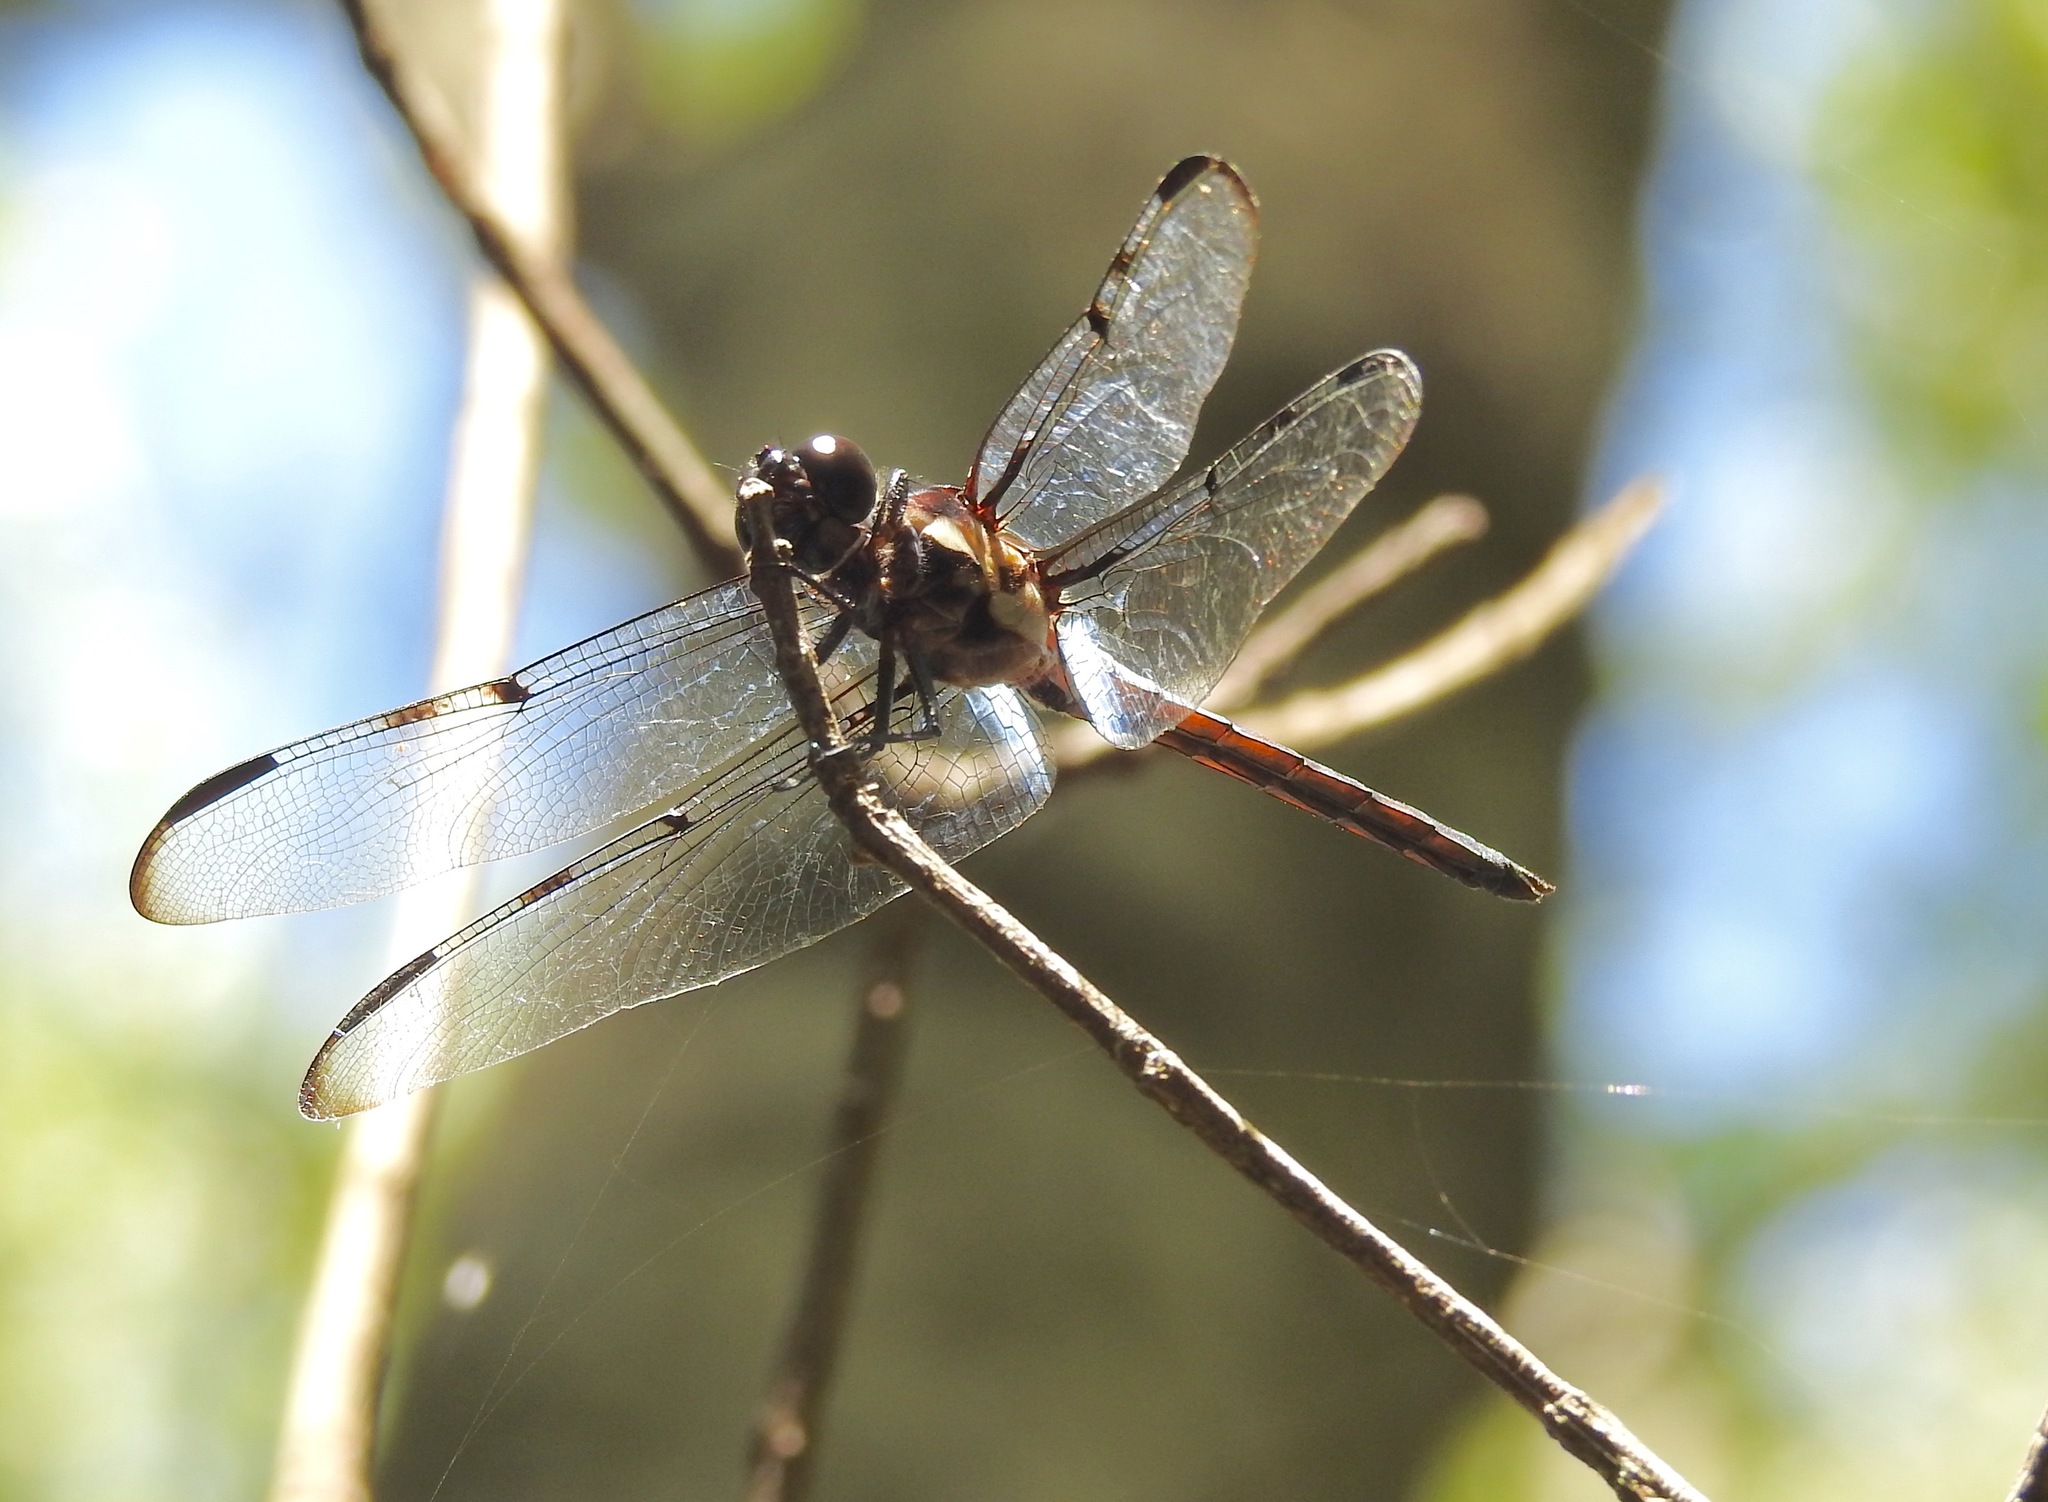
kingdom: Animalia
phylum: Arthropoda
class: Insecta
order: Odonata
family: Libellulidae
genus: Libellula
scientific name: Libellula axilena
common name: Bar-winged skimmer
